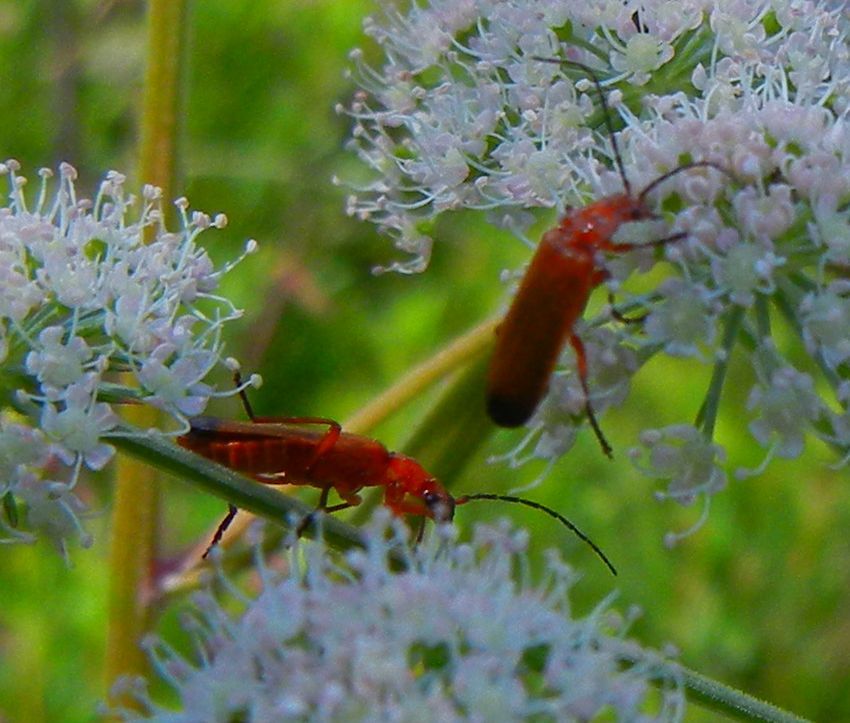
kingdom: Animalia
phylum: Arthropoda
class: Insecta
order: Coleoptera
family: Cantharidae
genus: Rhagonycha
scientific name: Rhagonycha fulva
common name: Common red soldier beetle
